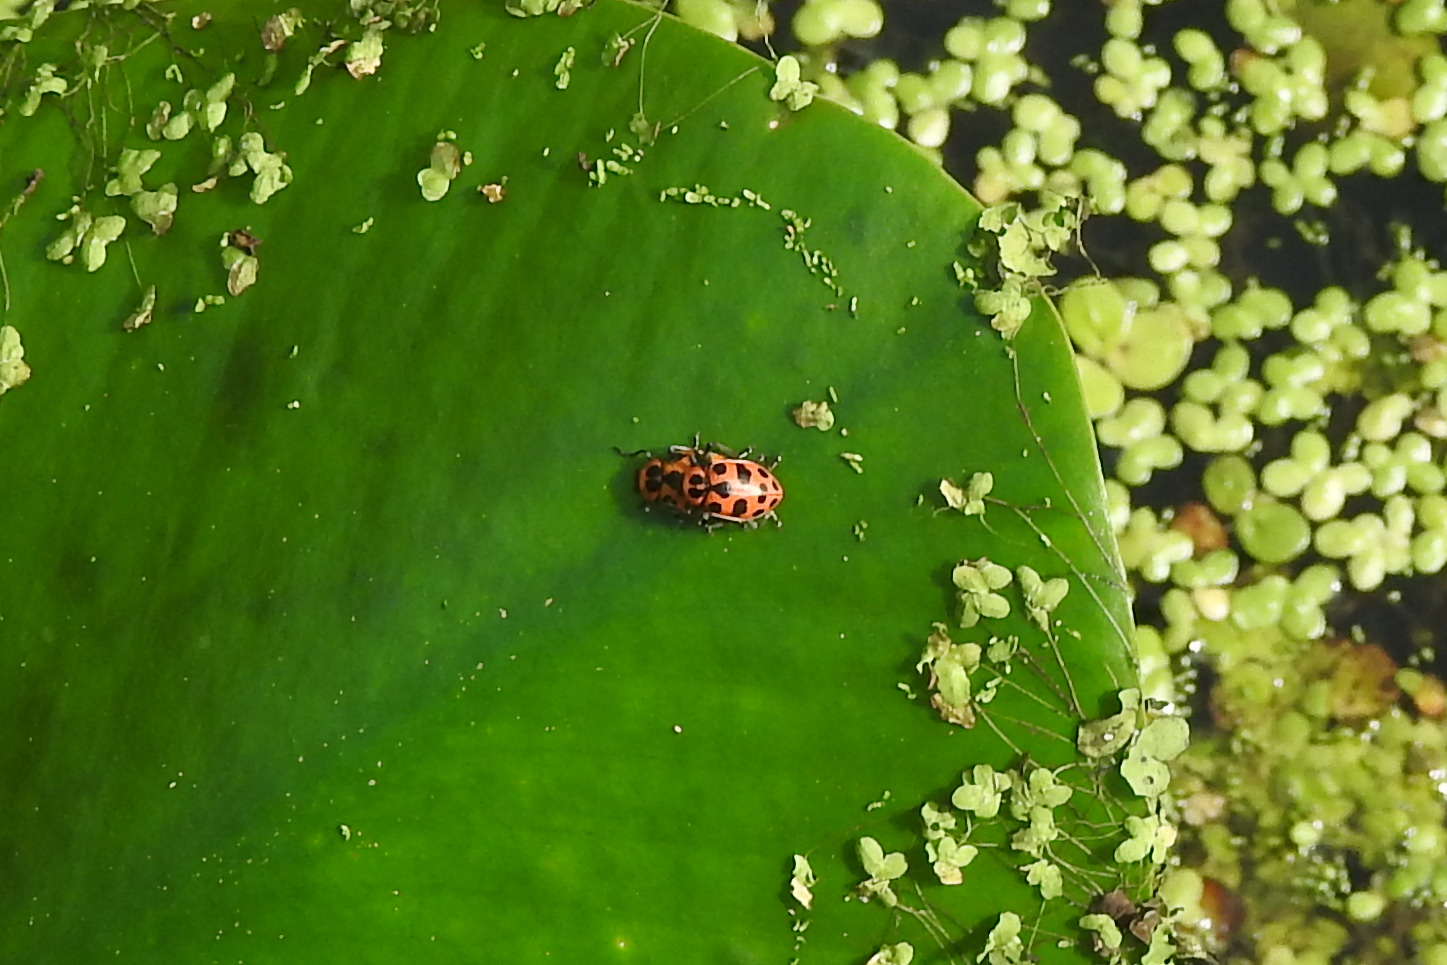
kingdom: Animalia
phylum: Arthropoda
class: Insecta
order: Coleoptera
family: Coccinellidae
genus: Coleomegilla
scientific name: Coleomegilla maculata
